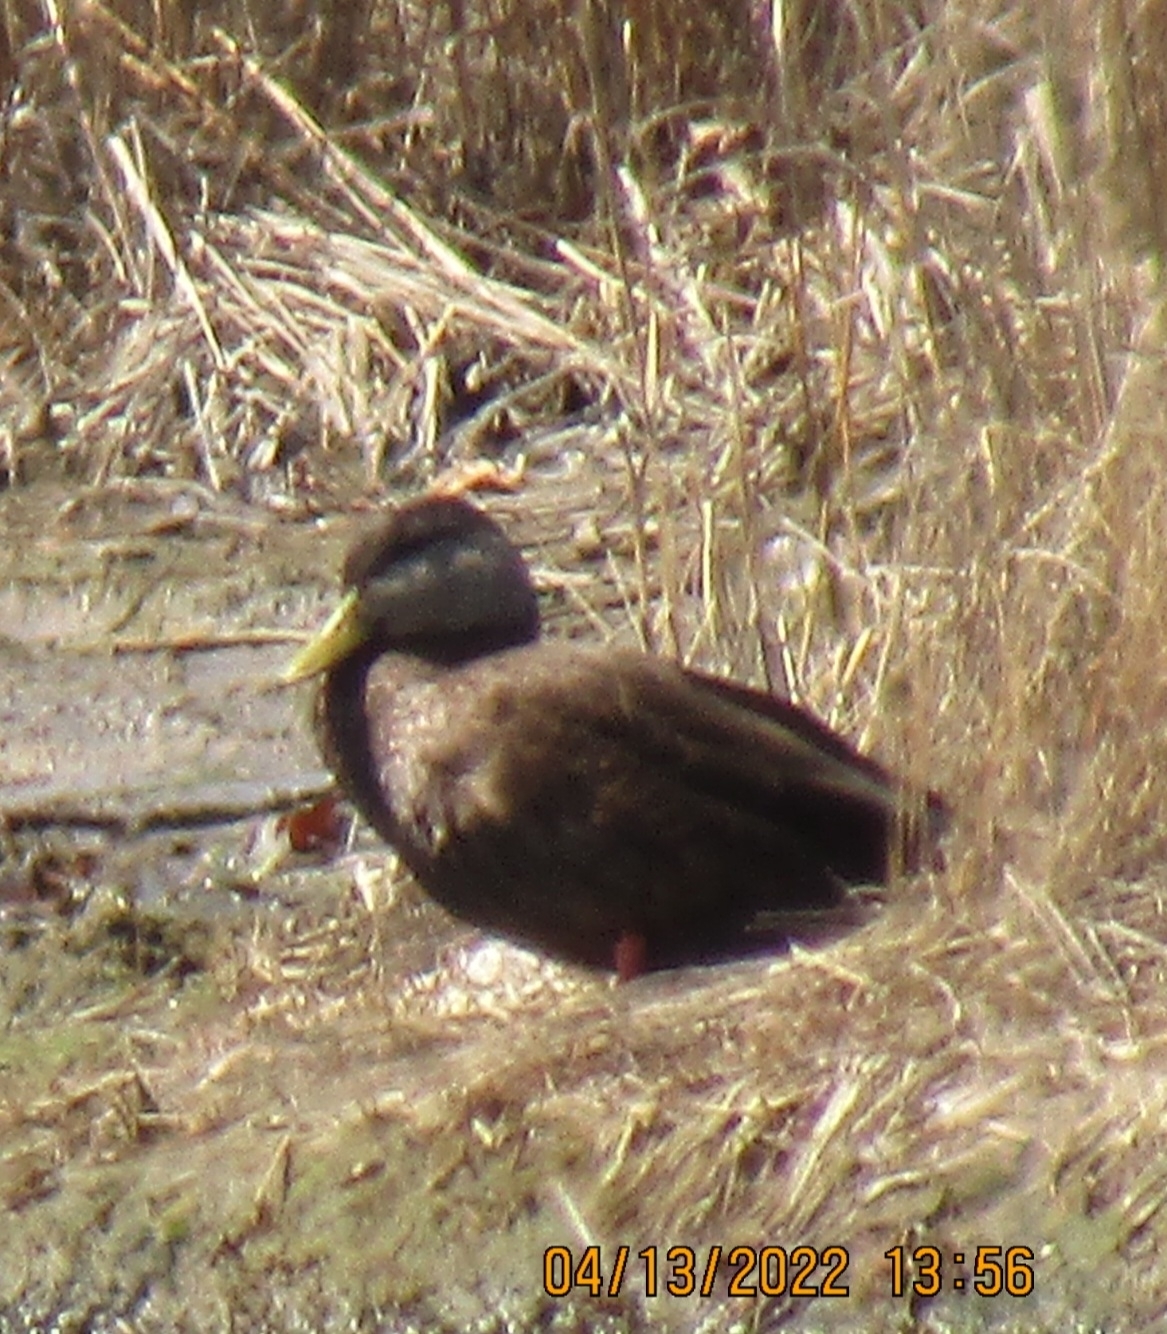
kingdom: Animalia
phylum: Chordata
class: Aves
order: Anseriformes
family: Anatidae
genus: Anas
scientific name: Anas rubripes
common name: American black duck
